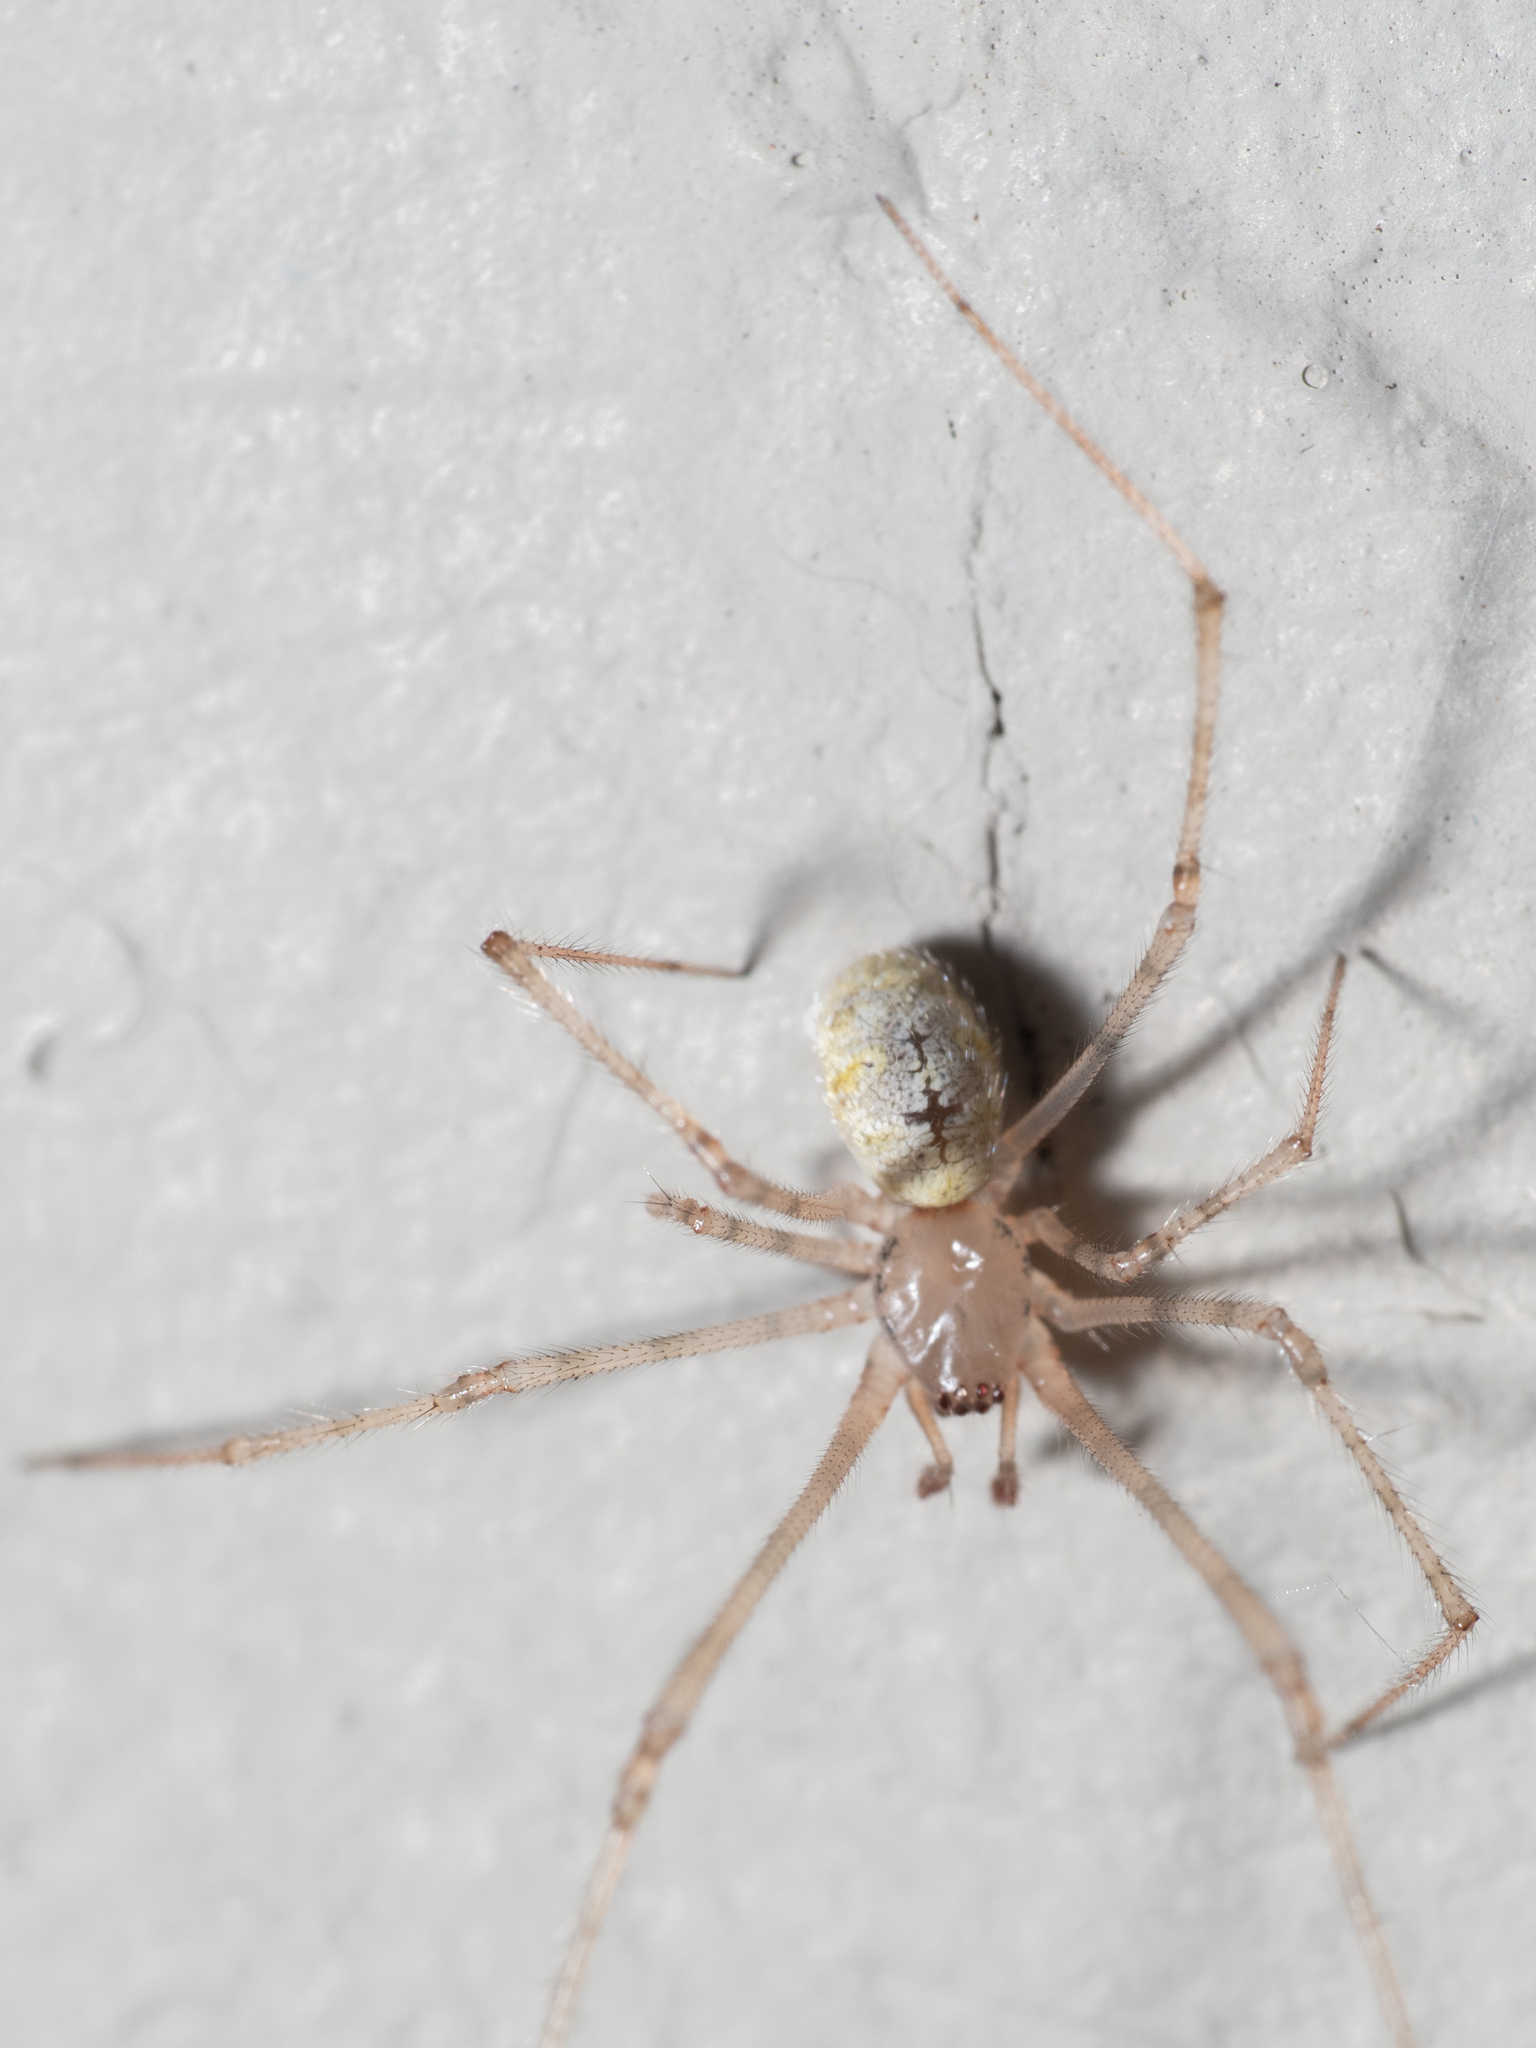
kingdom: Animalia
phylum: Arthropoda
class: Arachnida
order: Araneae
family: Theridiidae
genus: Cryptachaea
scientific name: Cryptachaea gigantipes
